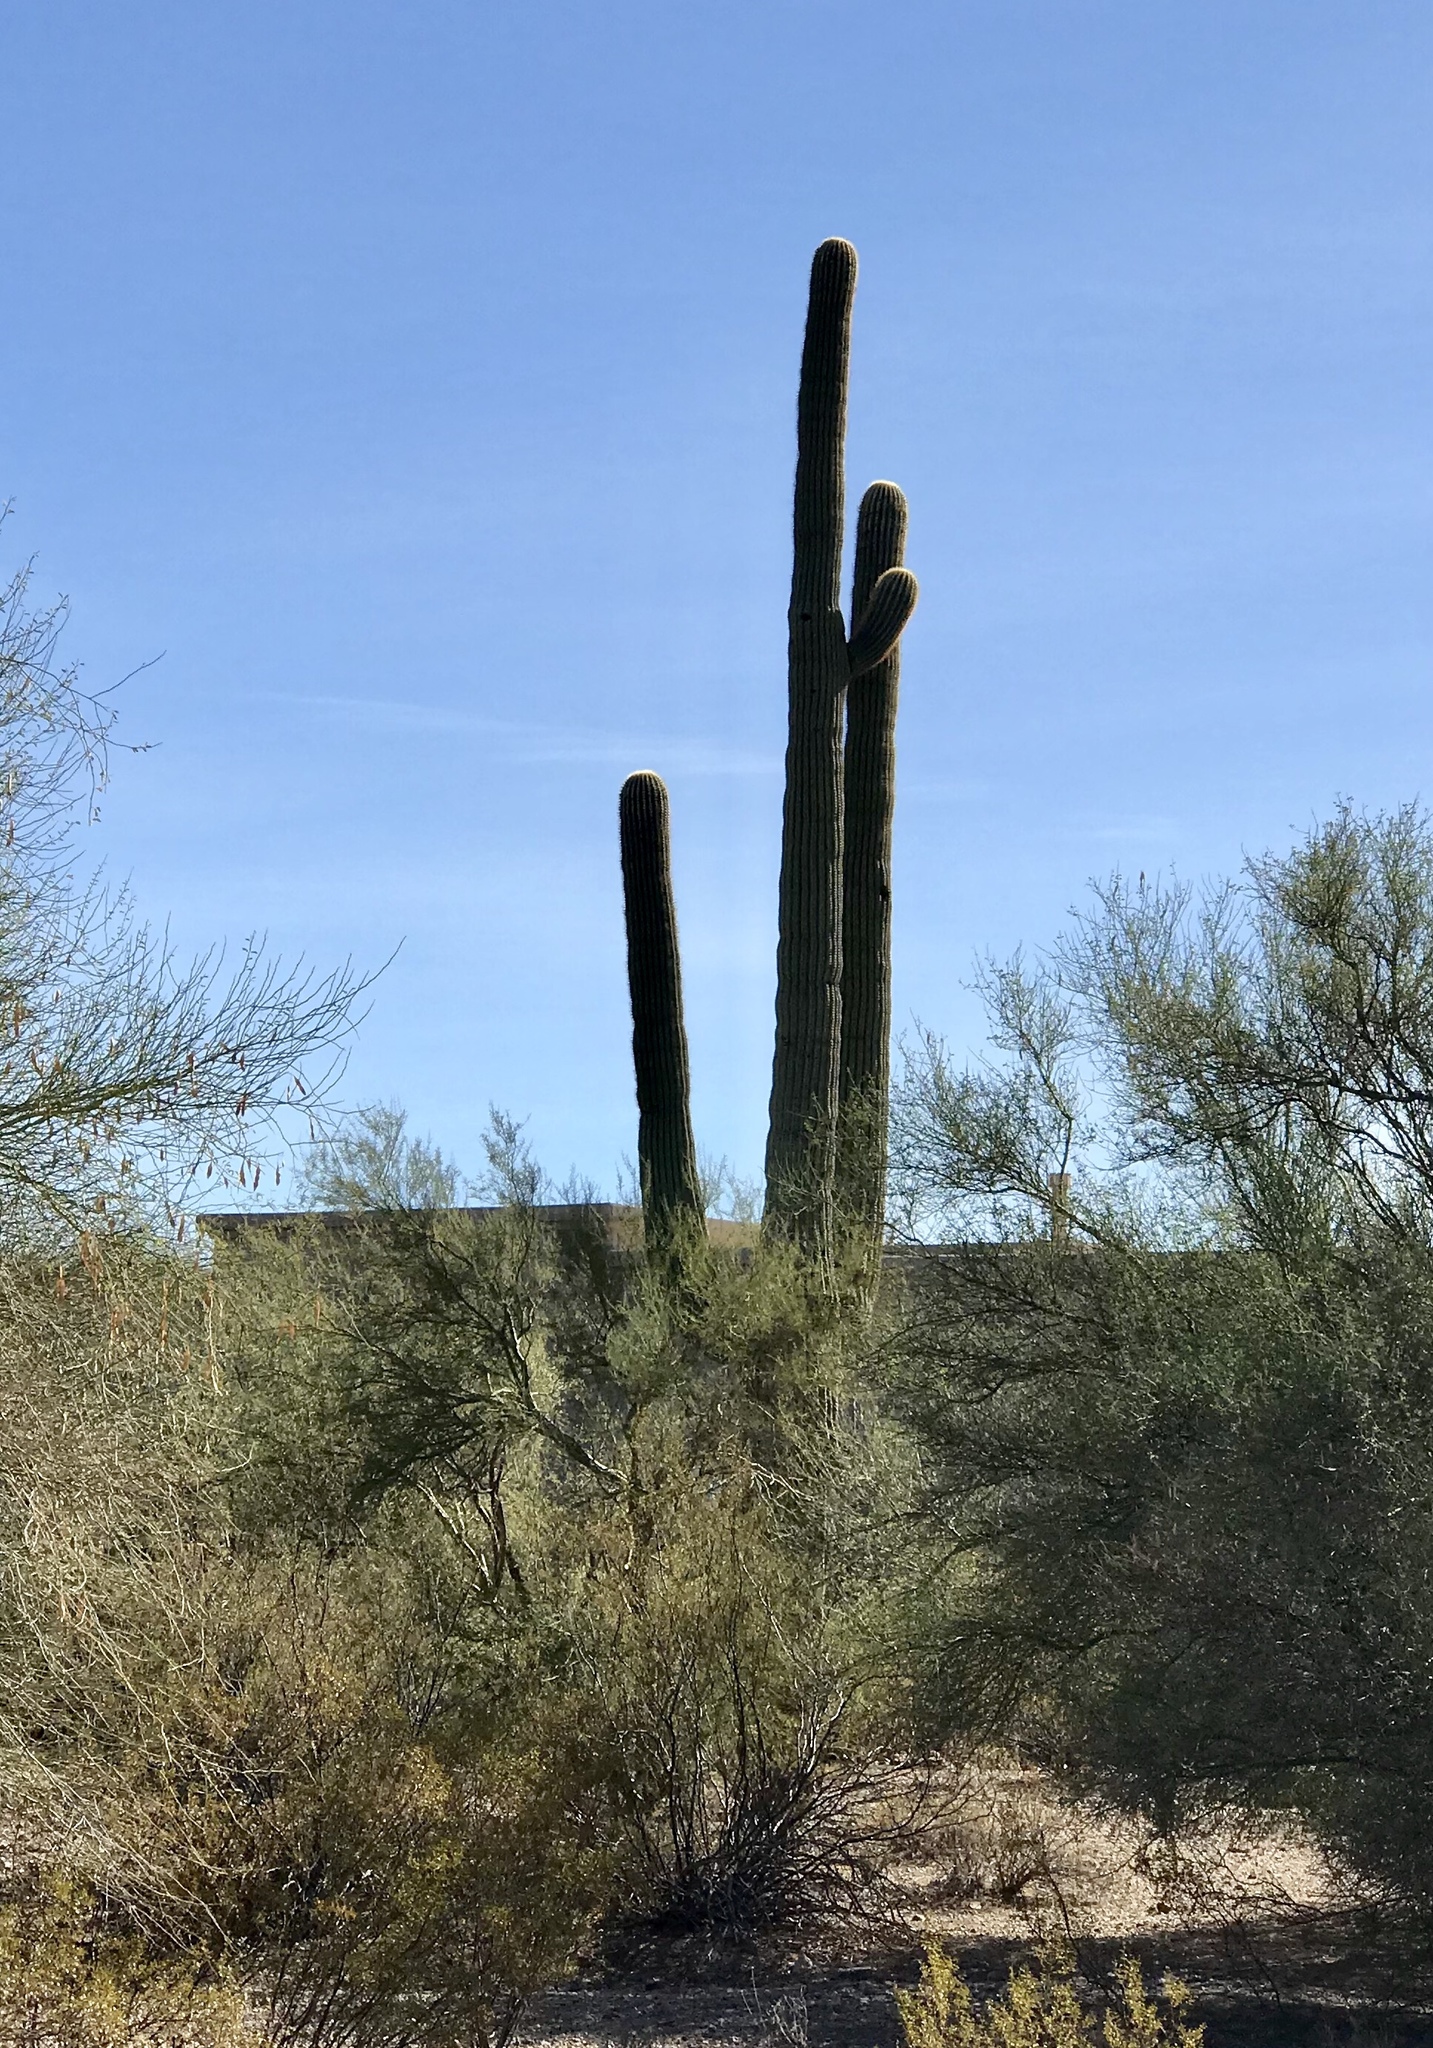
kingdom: Plantae
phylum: Tracheophyta
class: Magnoliopsida
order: Caryophyllales
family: Cactaceae
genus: Carnegiea
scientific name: Carnegiea gigantea
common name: Saguaro
